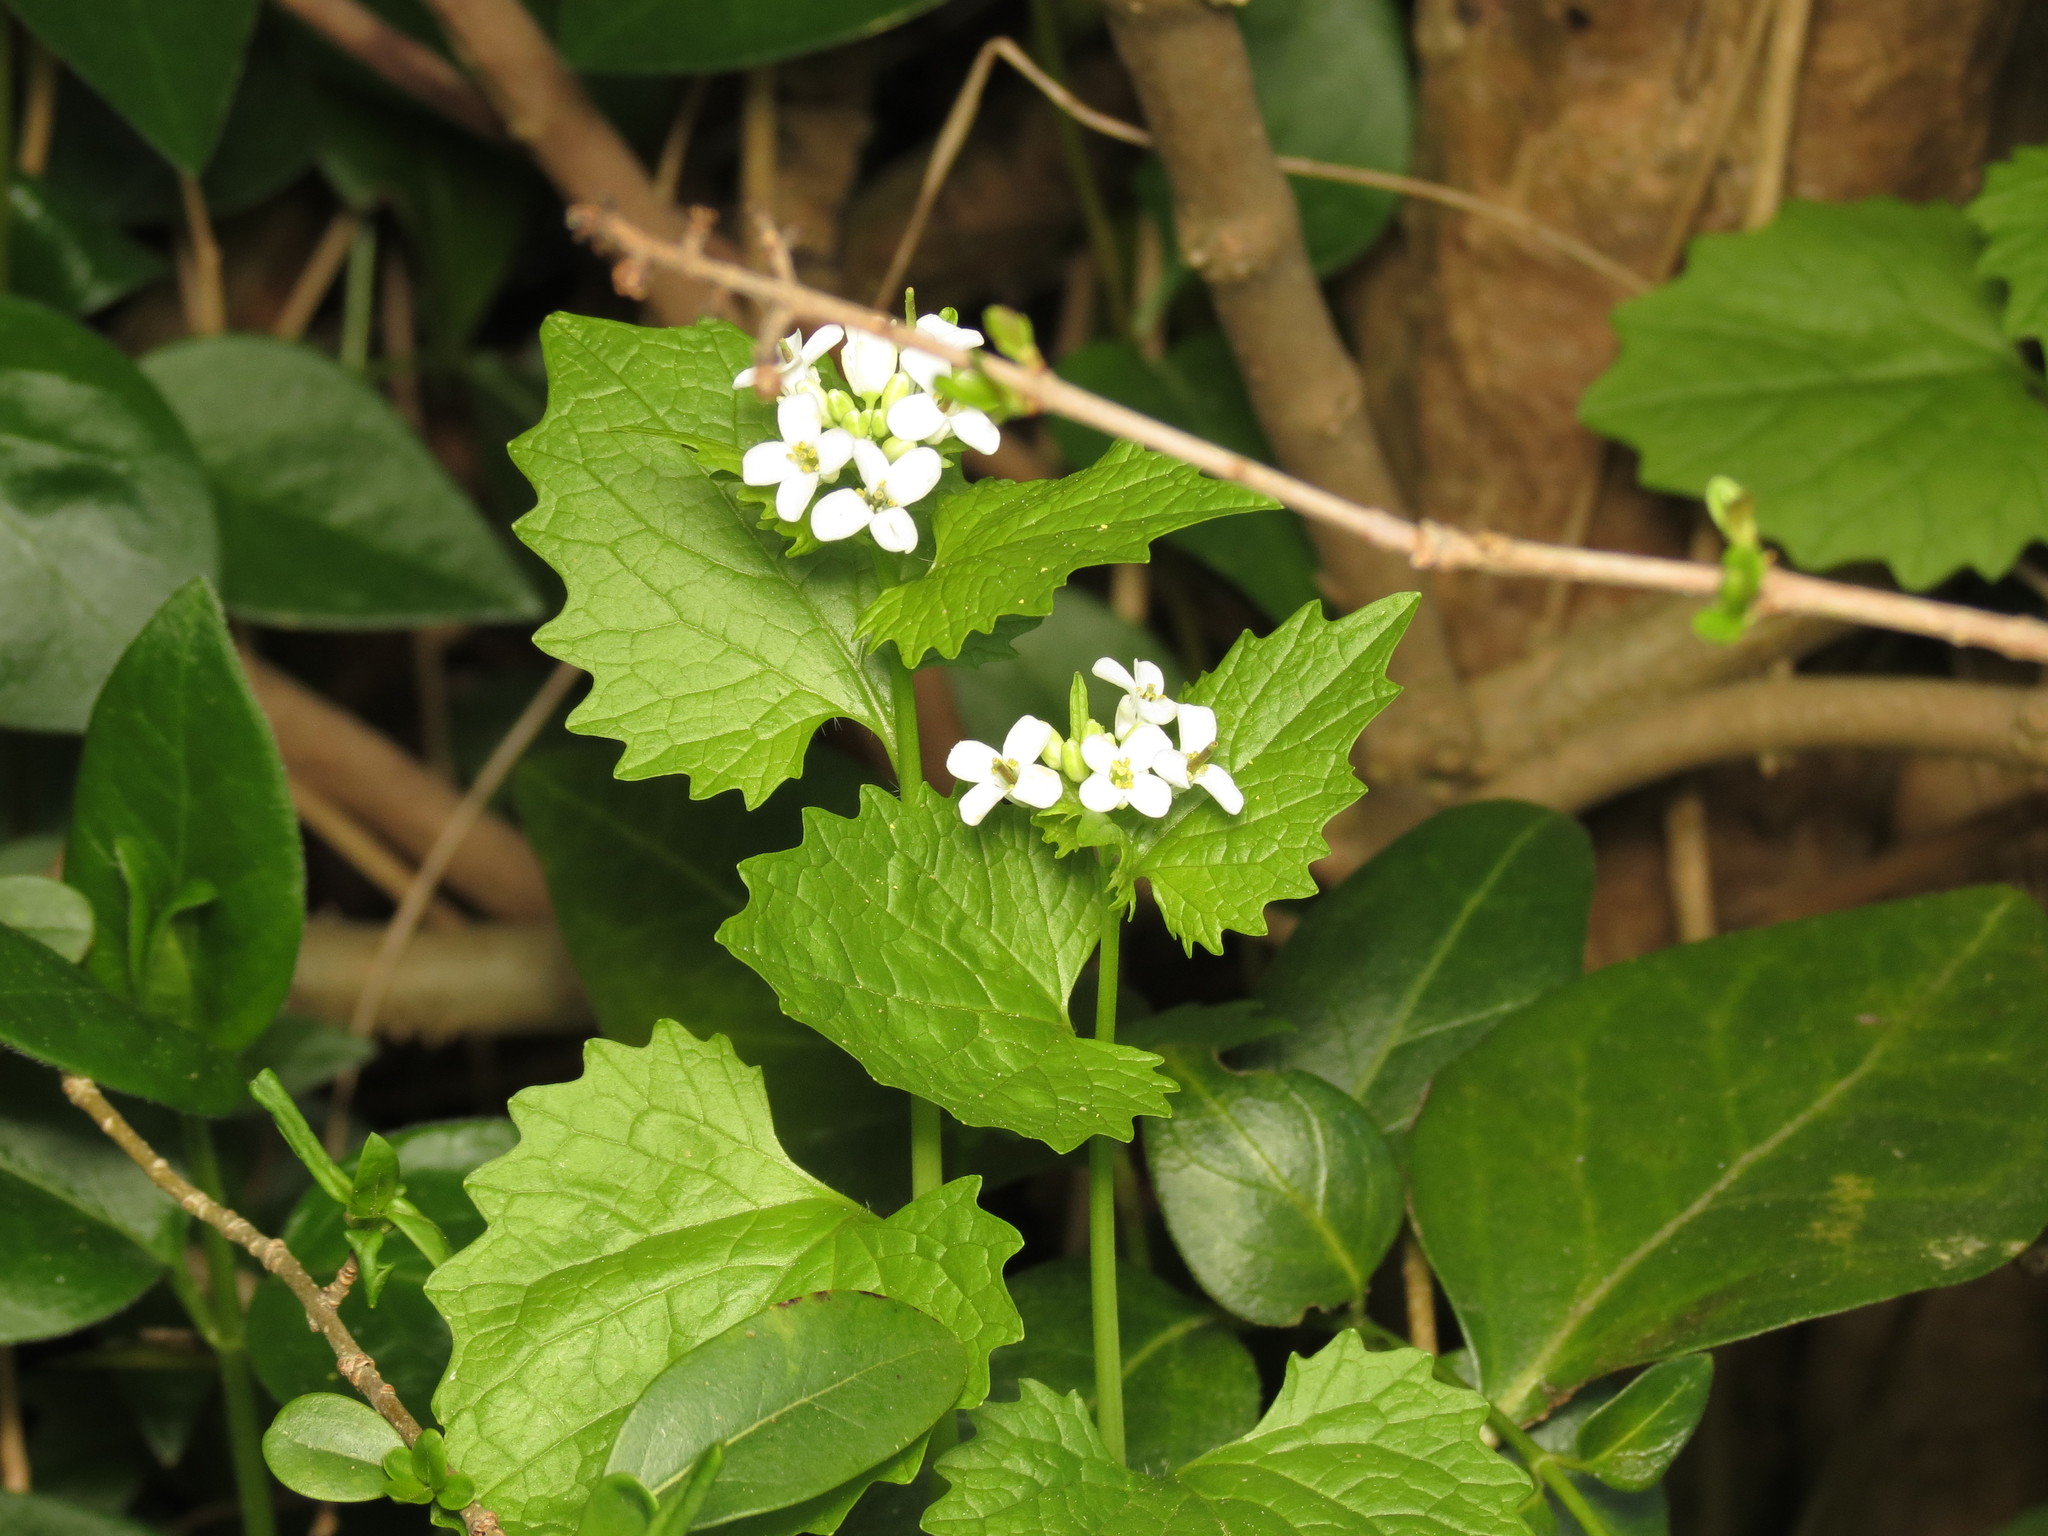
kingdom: Plantae
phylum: Tracheophyta
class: Magnoliopsida
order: Brassicales
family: Brassicaceae
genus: Alliaria
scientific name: Alliaria petiolata
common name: Garlic mustard
